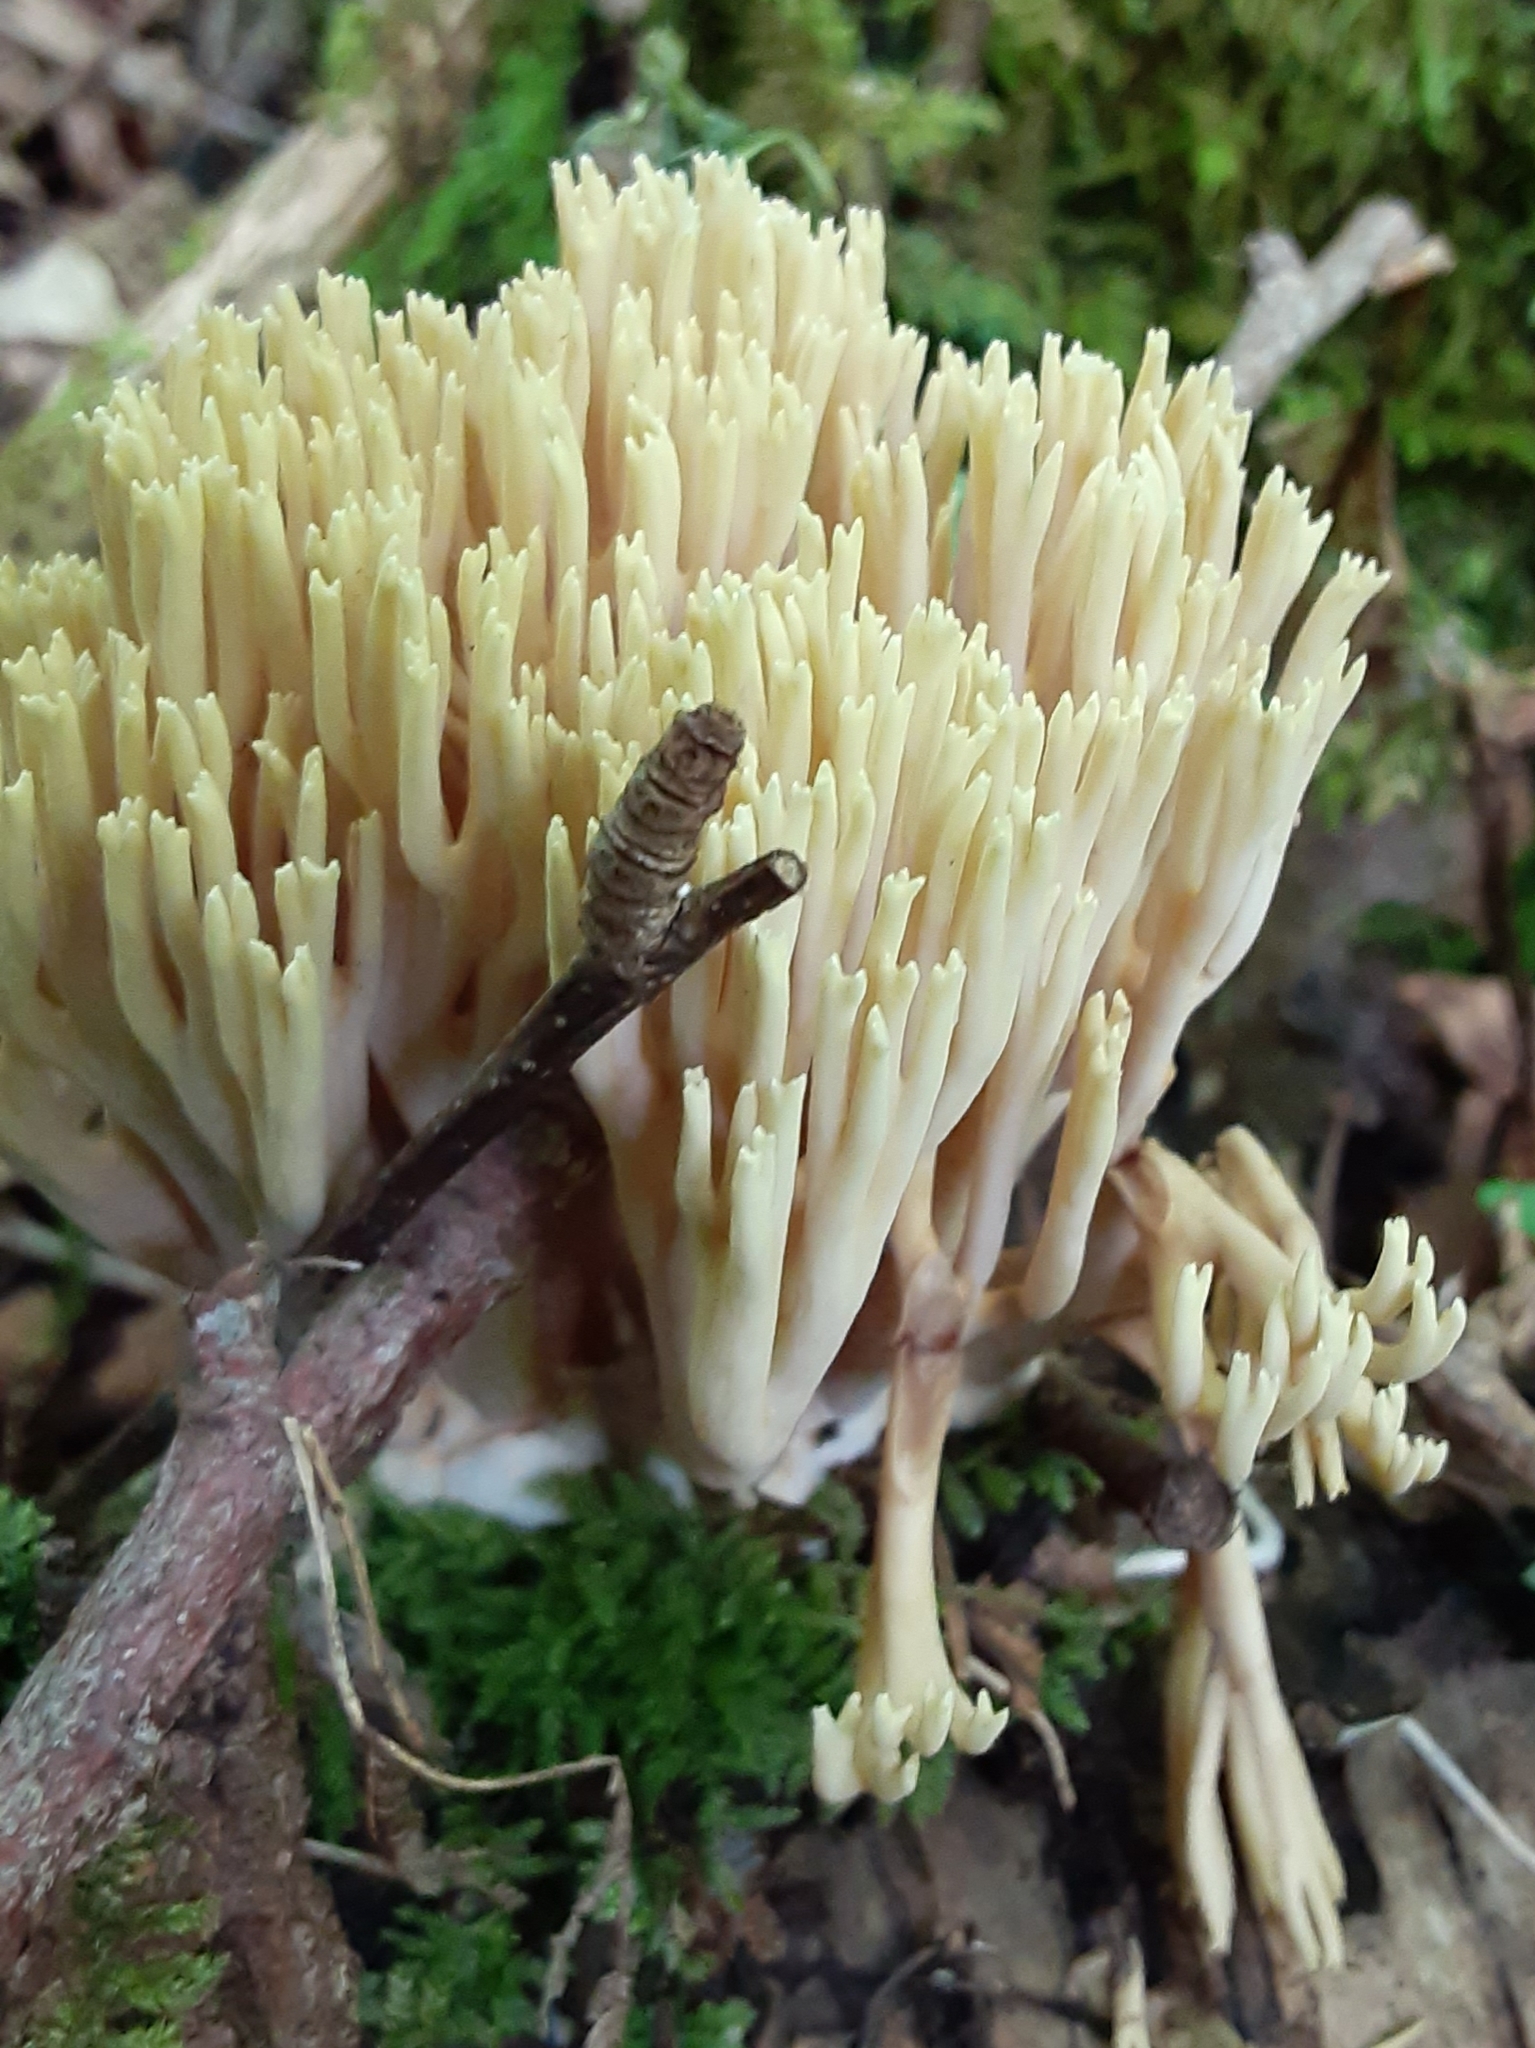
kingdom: Fungi
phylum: Basidiomycota
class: Agaricomycetes
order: Gomphales
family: Gomphaceae
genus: Ramaria
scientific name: Ramaria stricta
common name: Upright coral
